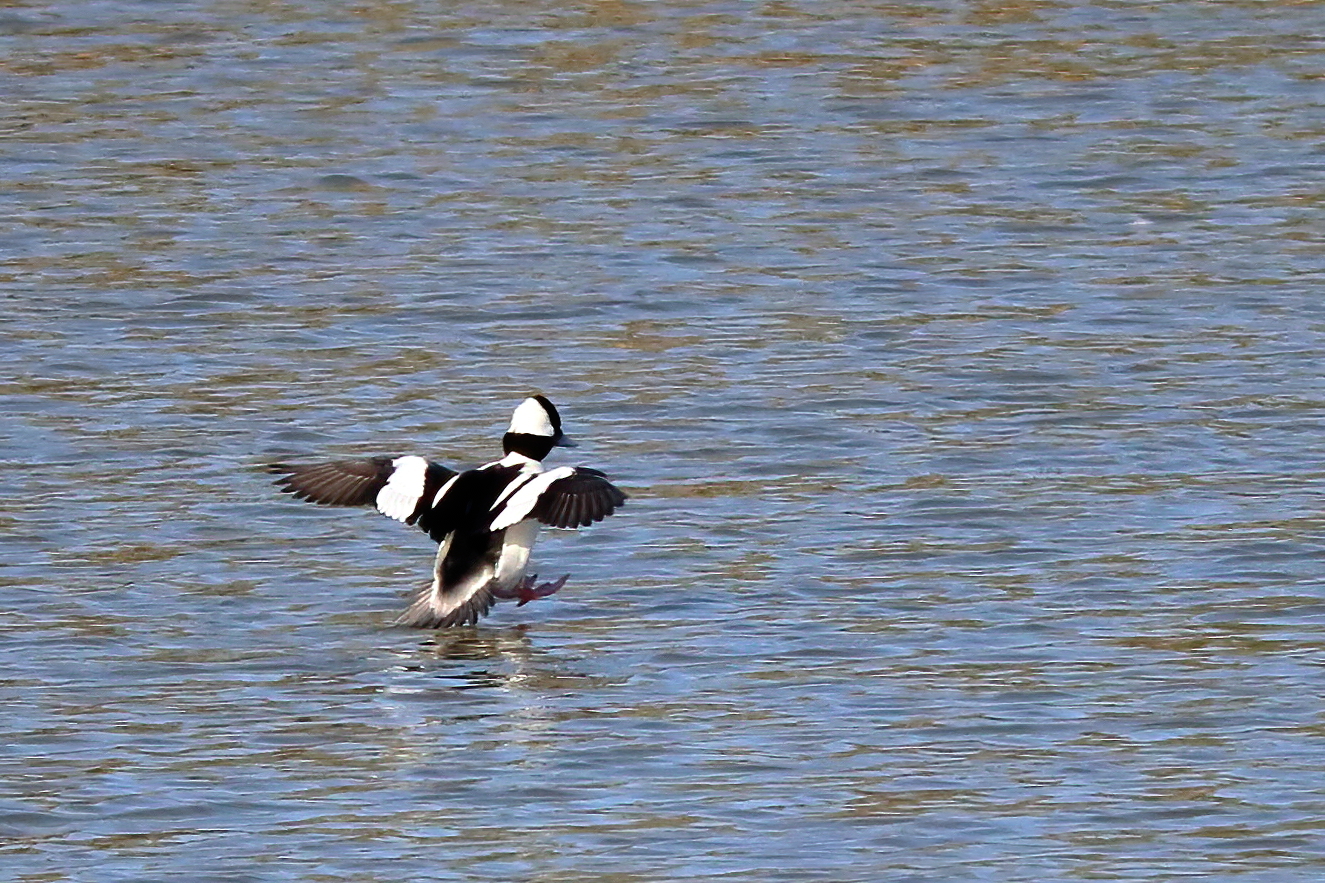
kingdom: Animalia
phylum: Chordata
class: Aves
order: Anseriformes
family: Anatidae
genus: Bucephala
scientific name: Bucephala albeola
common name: Bufflehead
